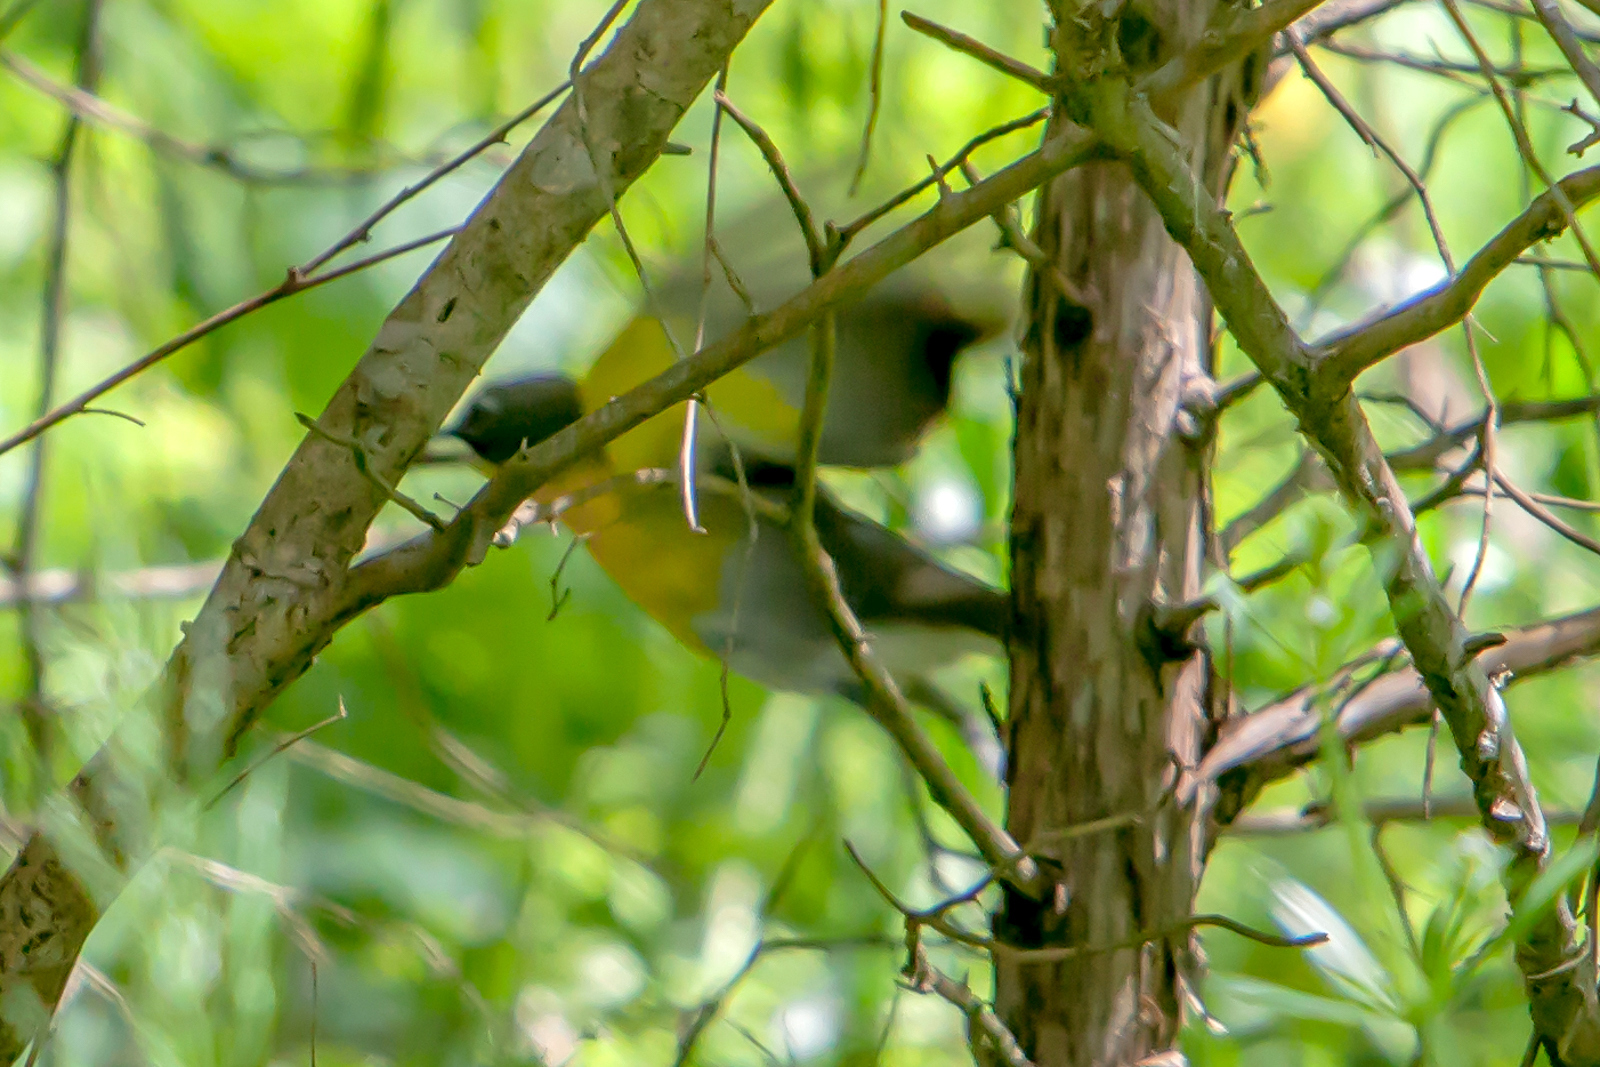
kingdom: Animalia
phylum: Chordata
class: Aves
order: Passeriformes
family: Parulidae
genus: Icteria
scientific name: Icteria virens
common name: Yellow-breasted chat
